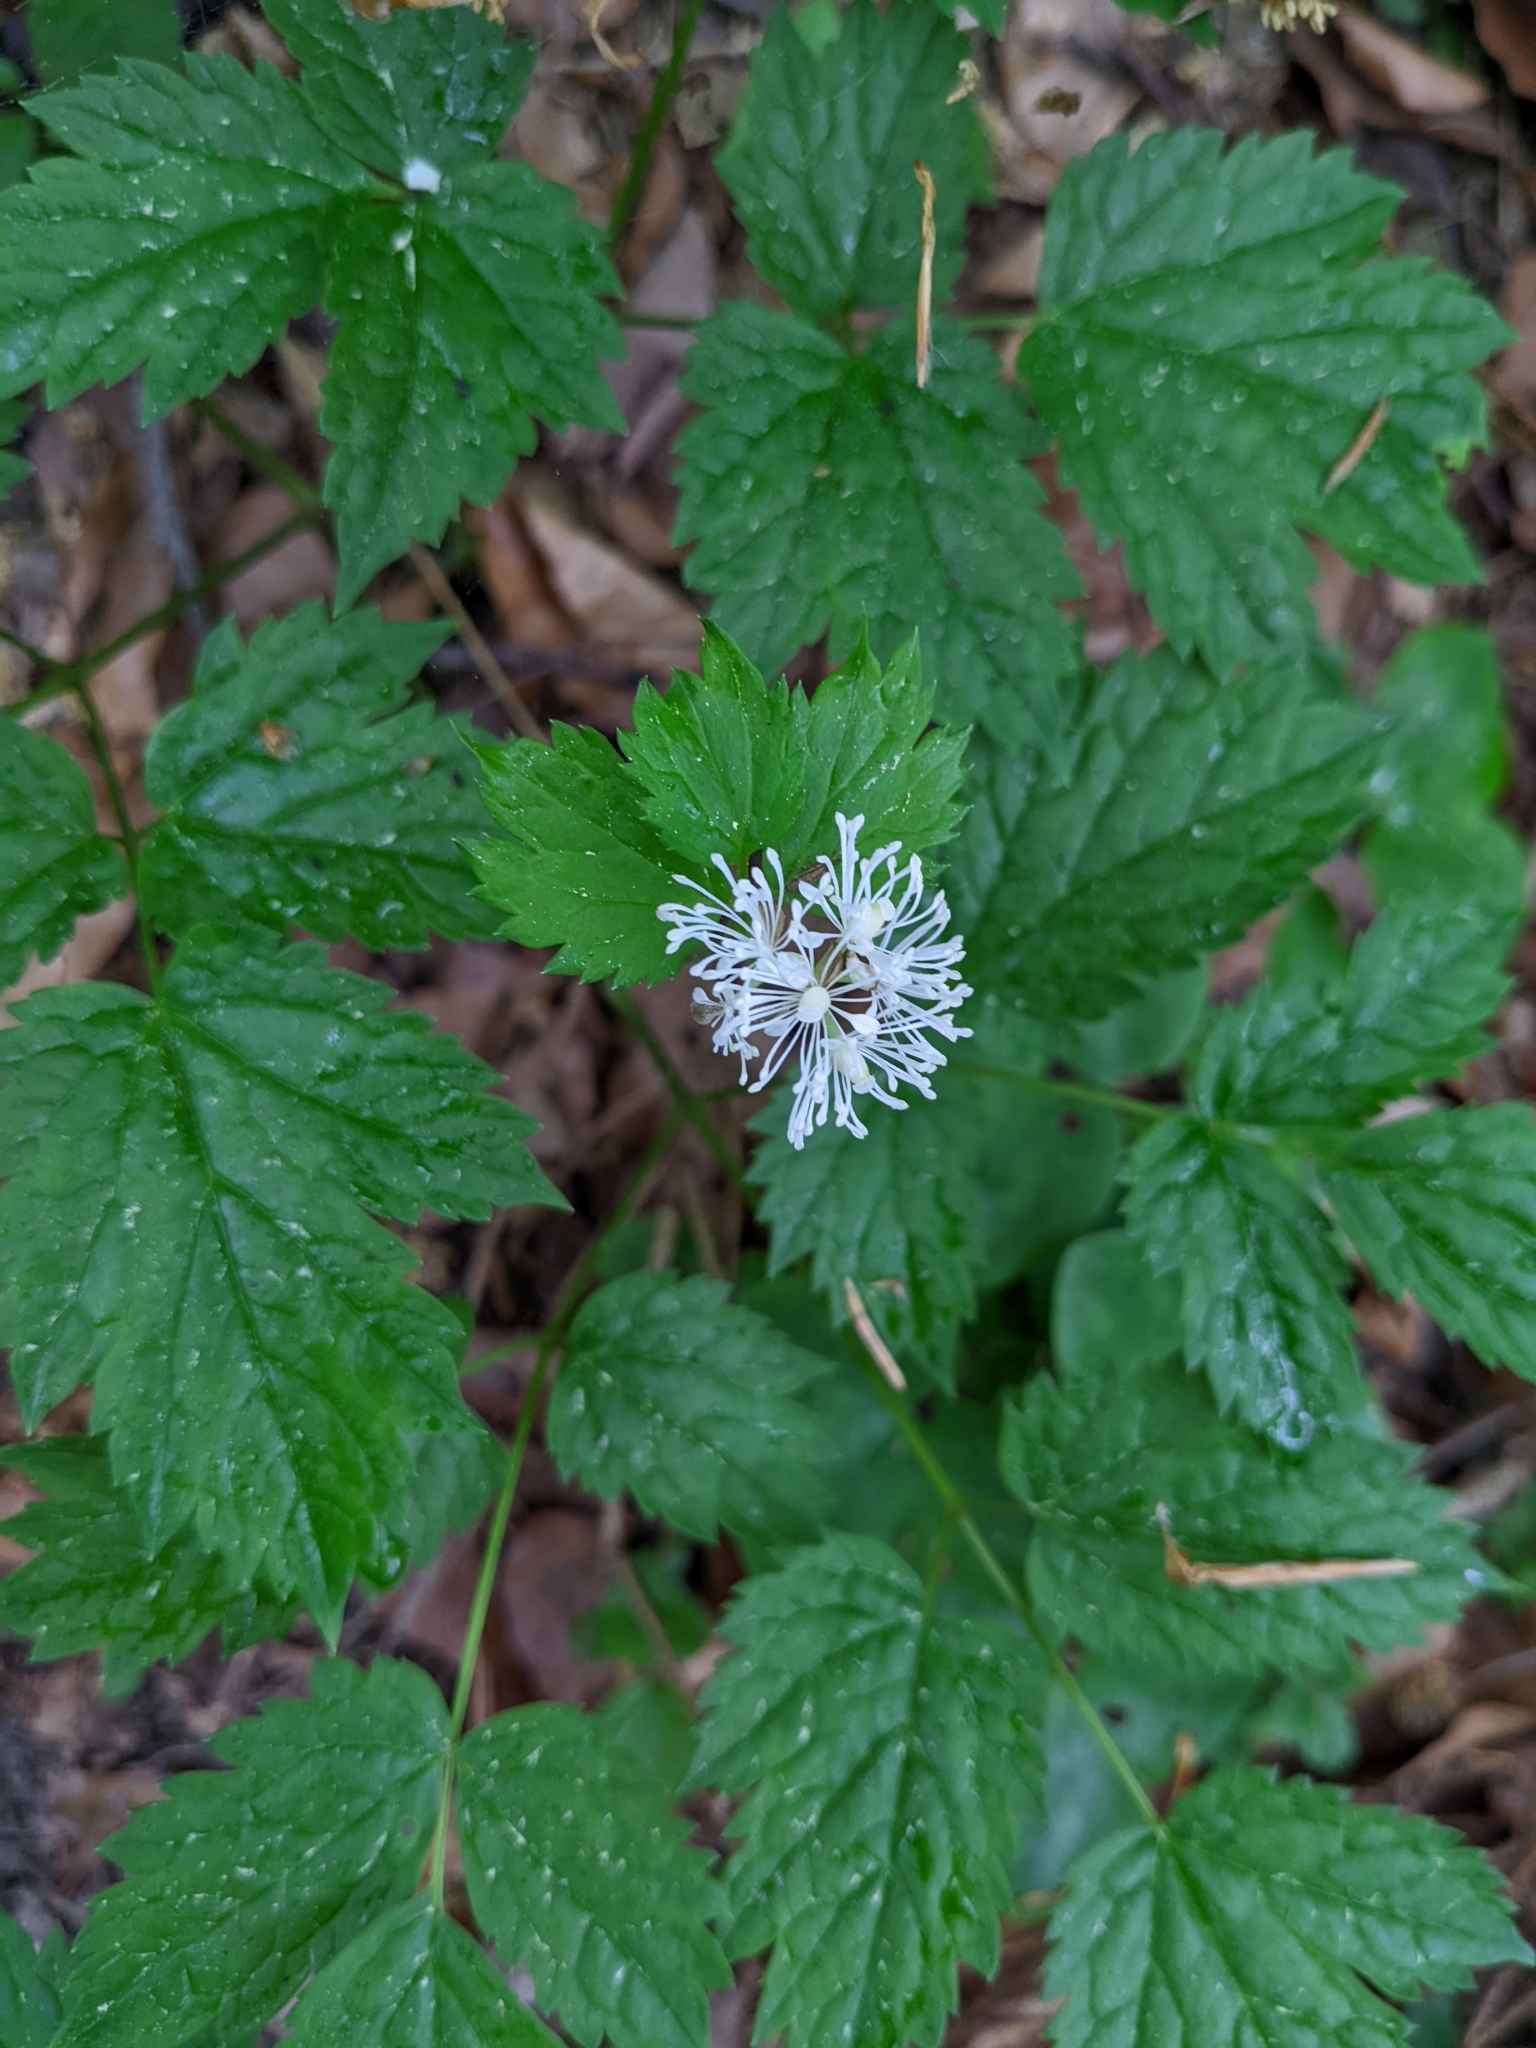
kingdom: Plantae
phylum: Tracheophyta
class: Magnoliopsida
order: Ranunculales
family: Ranunculaceae
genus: Actaea
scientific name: Actaea spicata
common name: Baneberry
